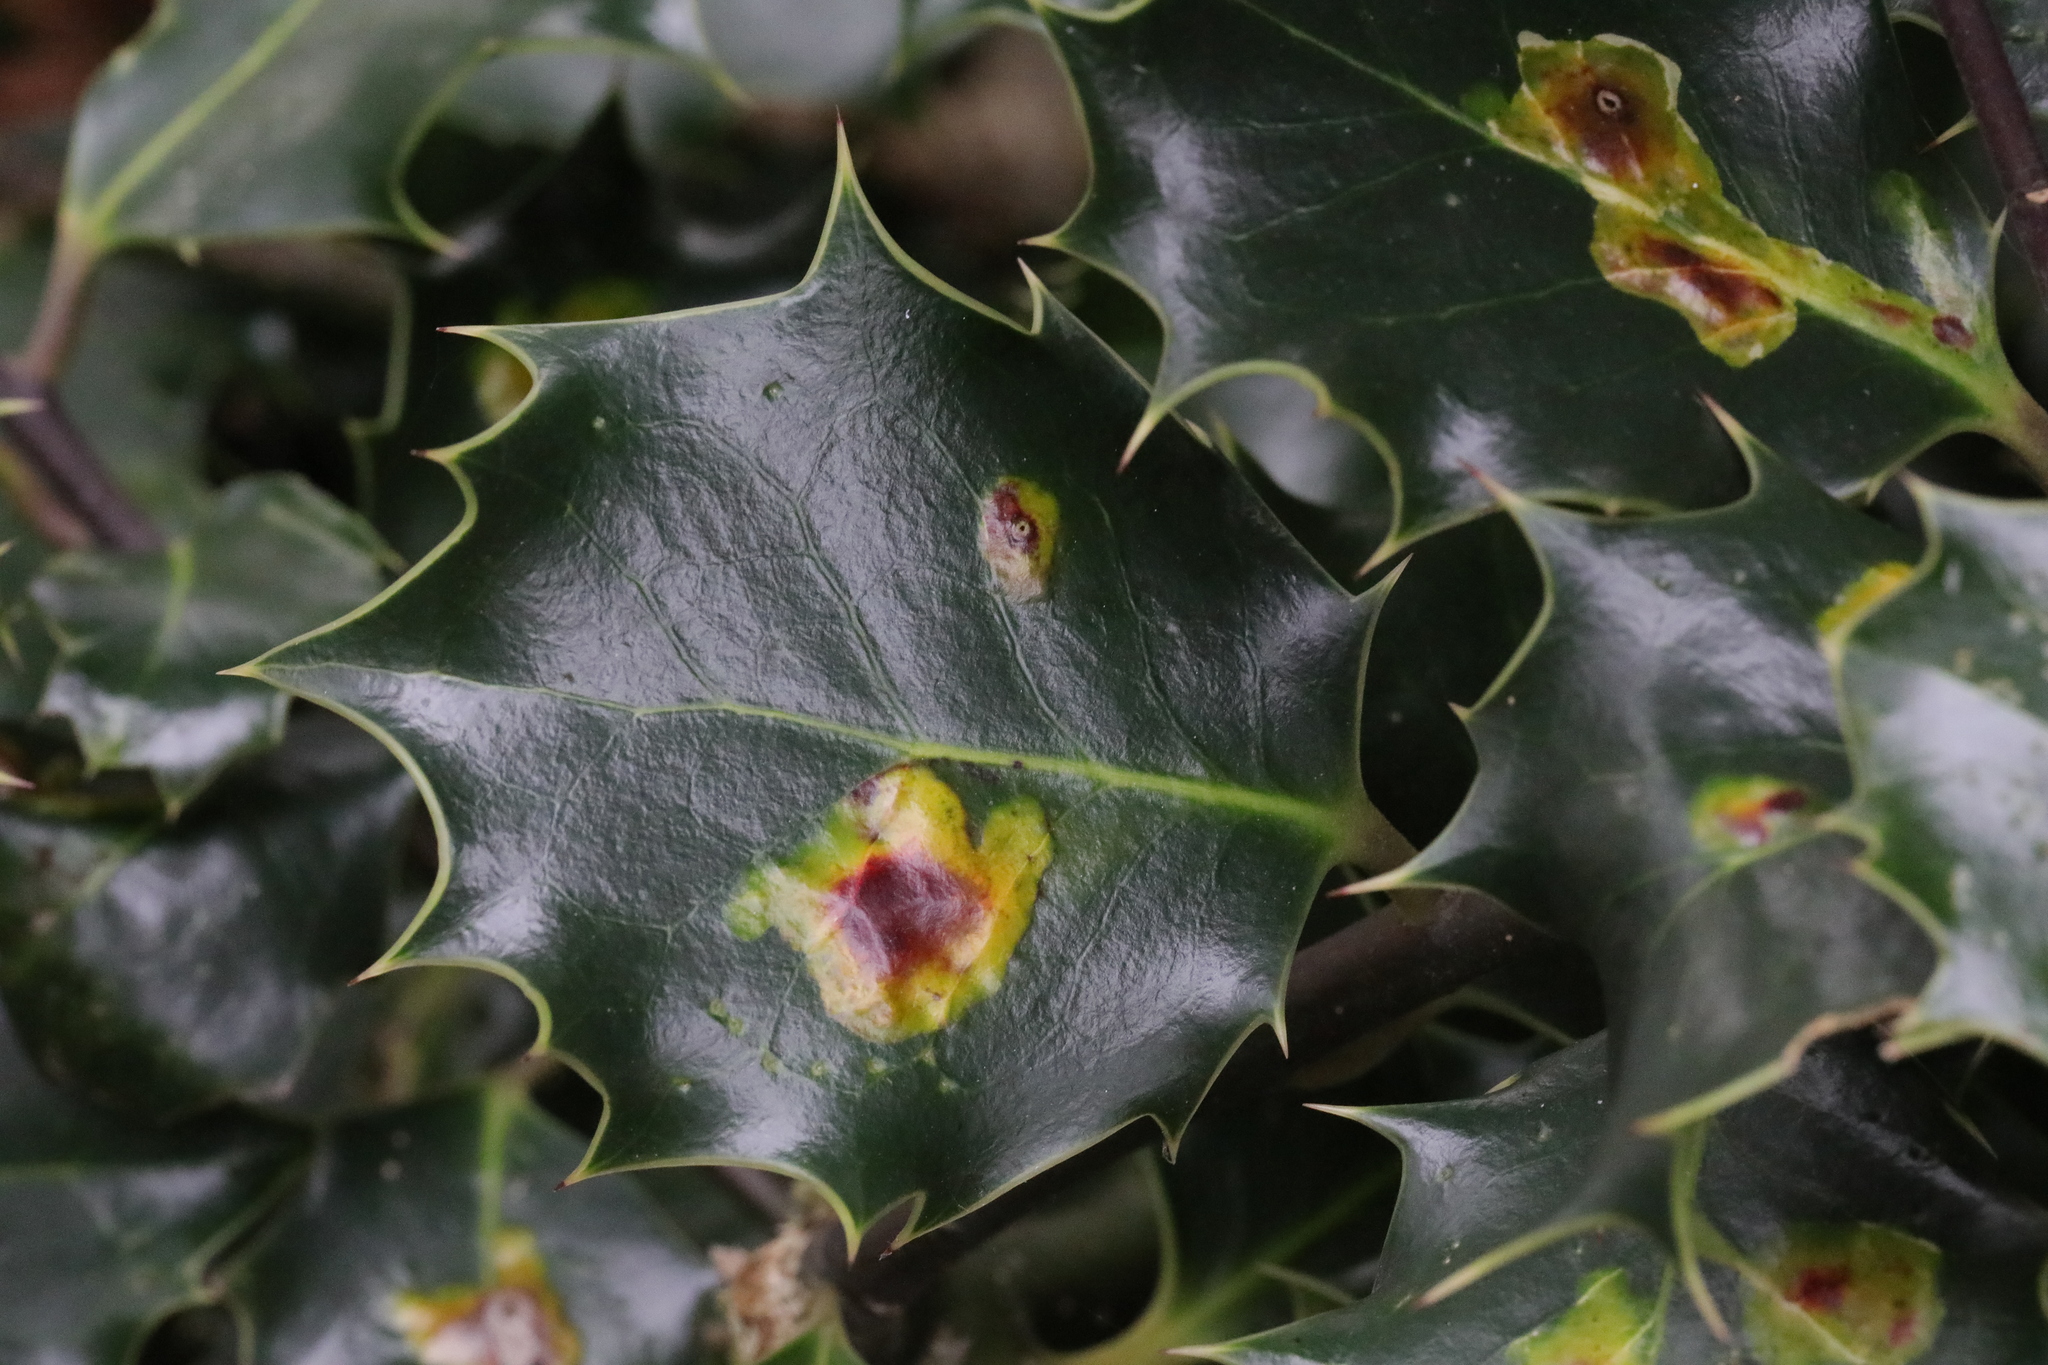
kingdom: Animalia
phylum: Arthropoda
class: Insecta
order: Diptera
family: Agromyzidae
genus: Phytomyza
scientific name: Phytomyza ilicis
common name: Holly leafminer
